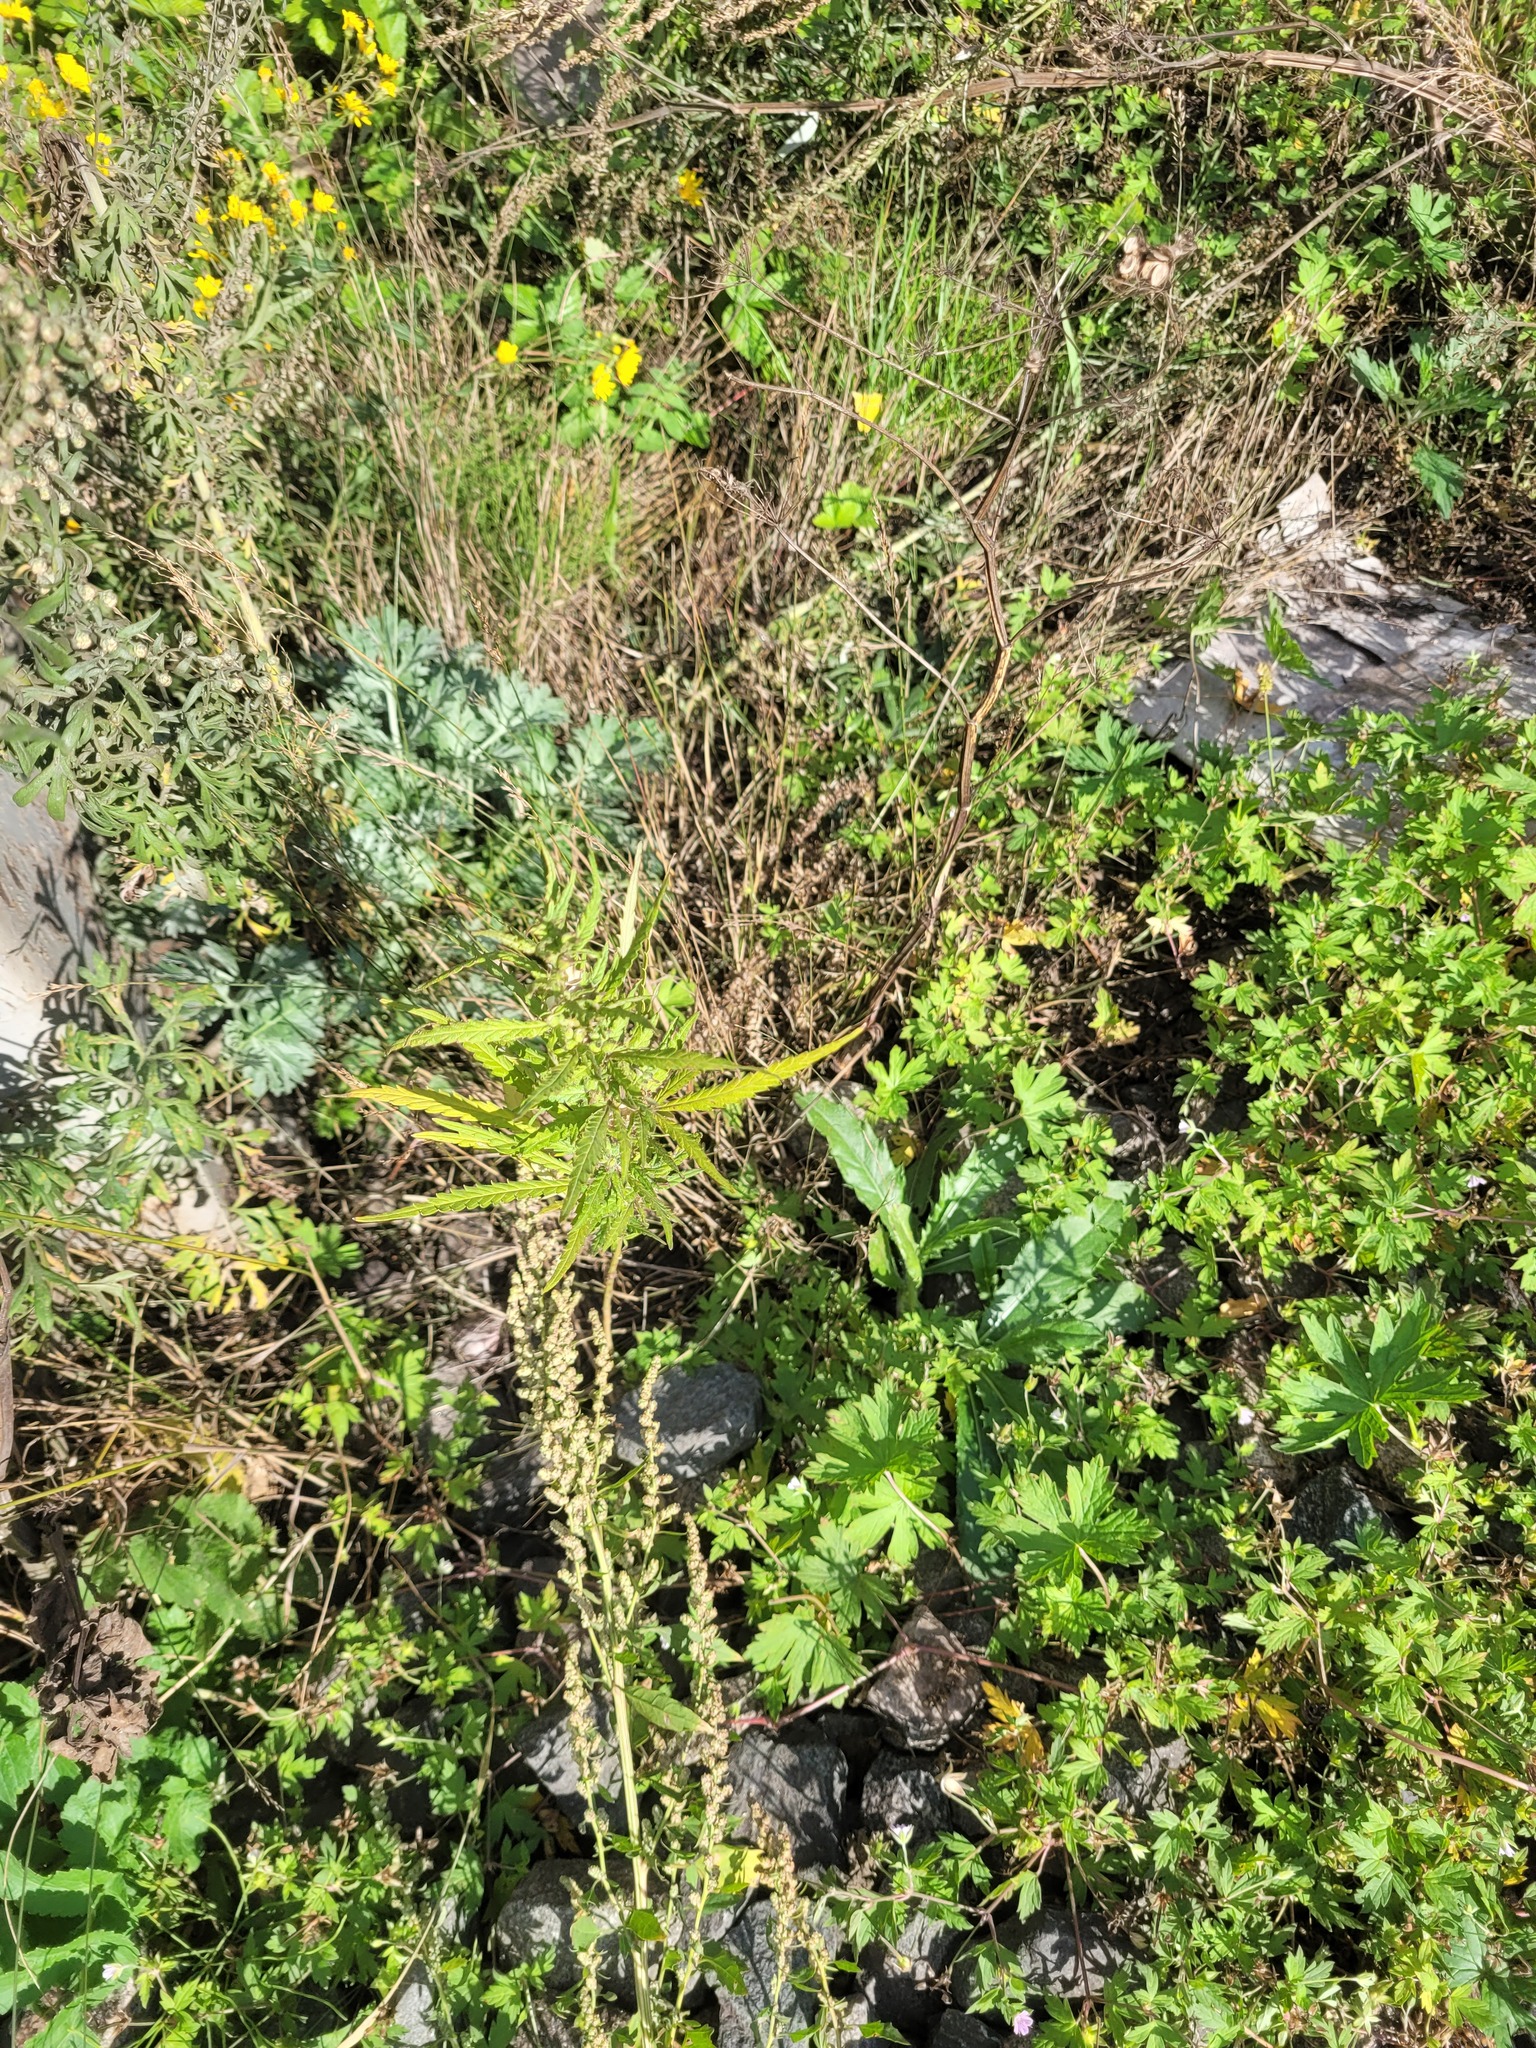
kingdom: Plantae
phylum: Tracheophyta
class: Magnoliopsida
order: Rosales
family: Cannabaceae
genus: Cannabis
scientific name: Cannabis sativa
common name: Hemp
